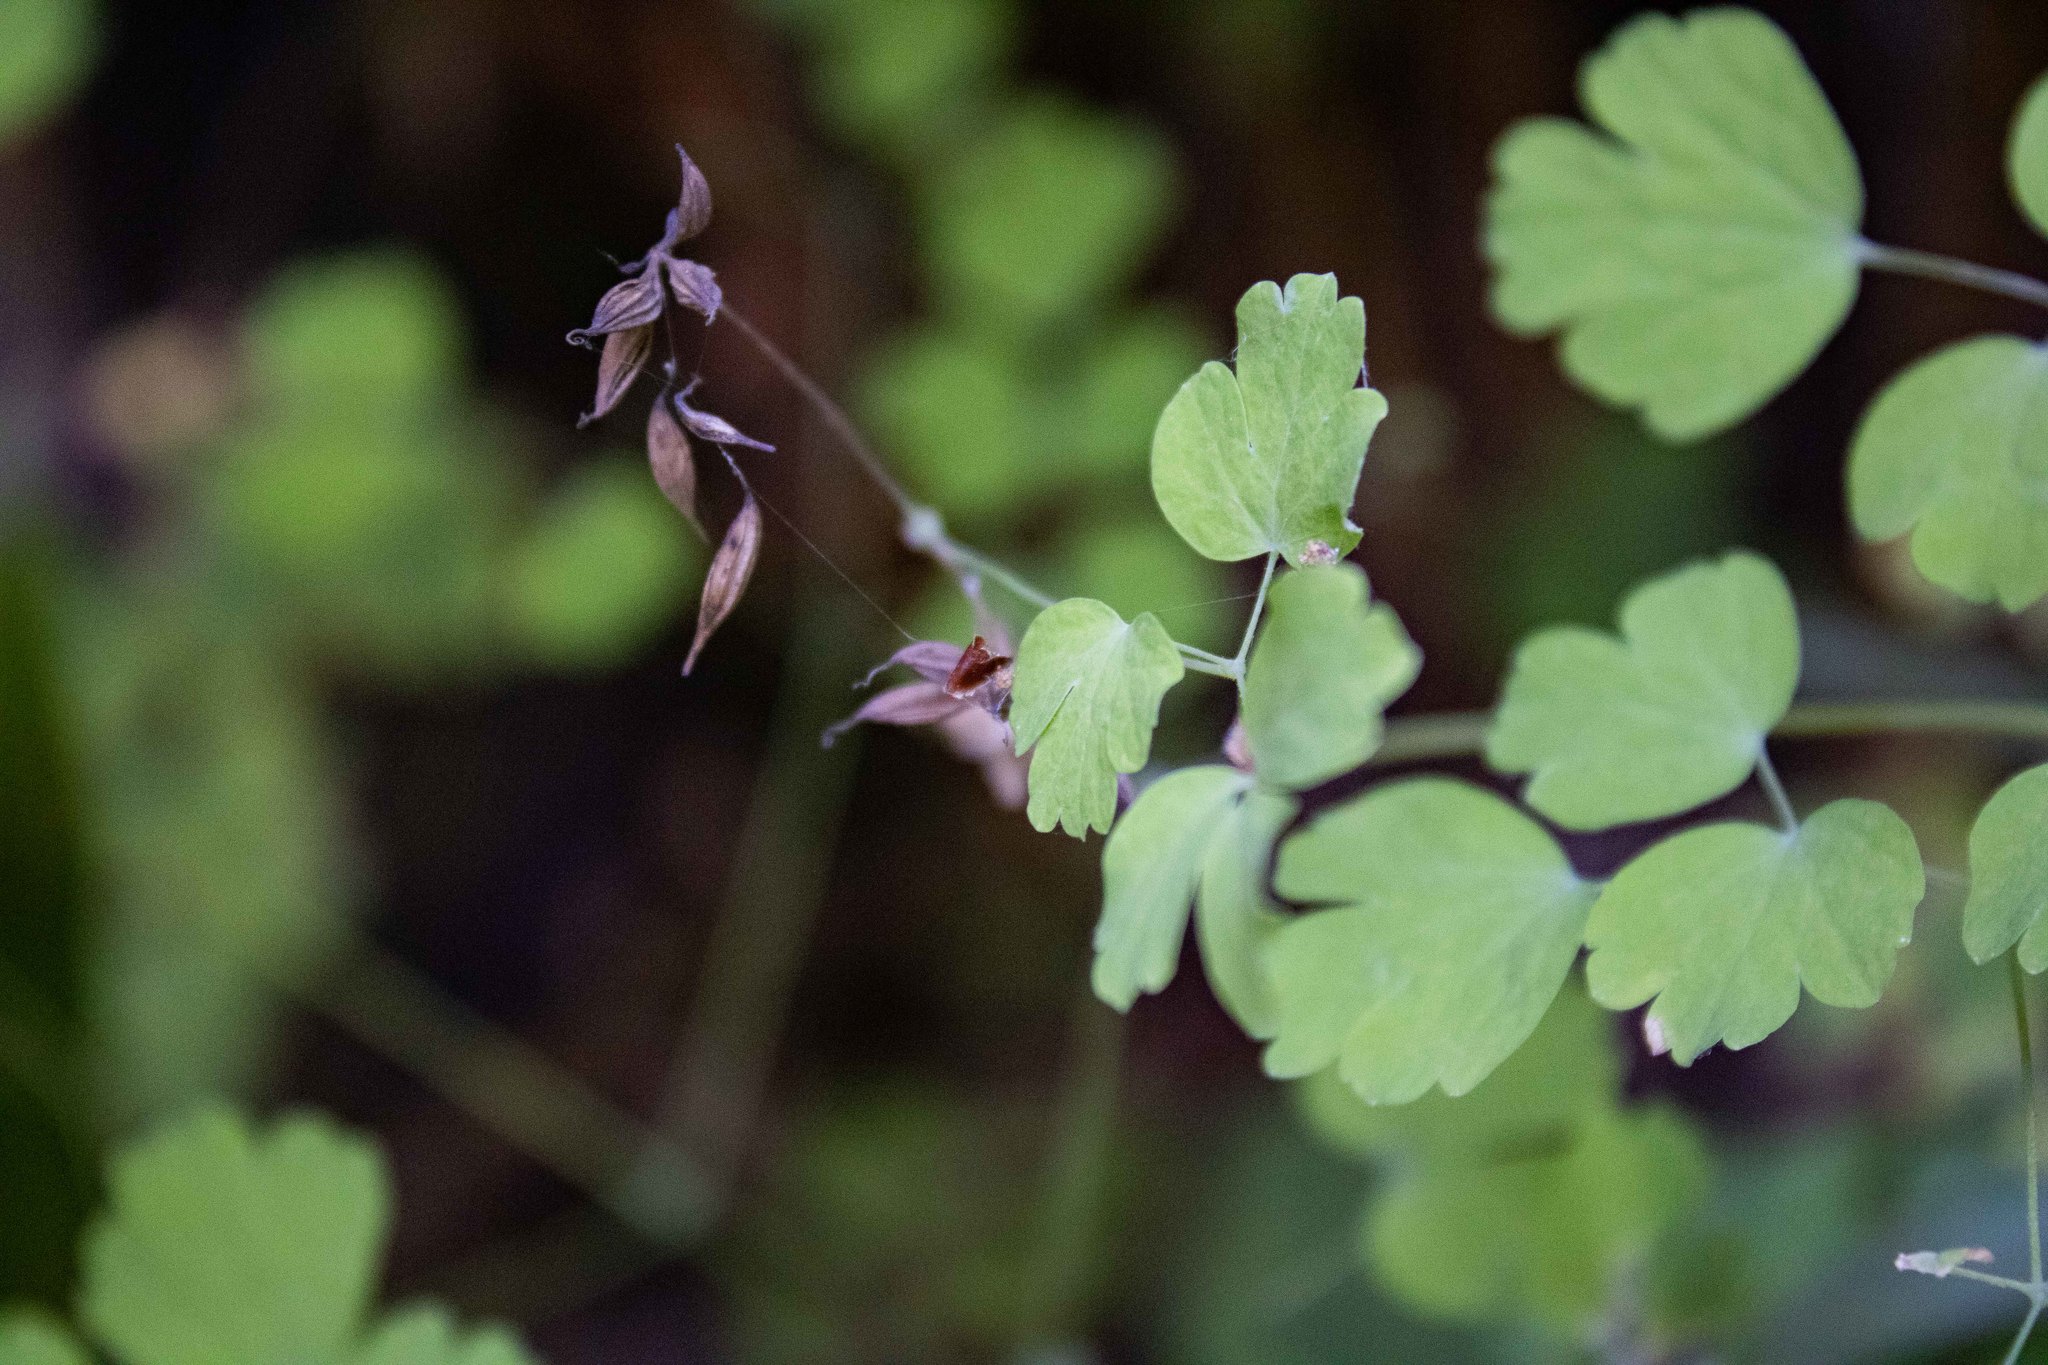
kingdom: Plantae
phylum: Tracheophyta
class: Magnoliopsida
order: Ranunculales
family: Ranunculaceae
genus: Thalictrum
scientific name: Thalictrum occidentale
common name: Western meadow-rue
